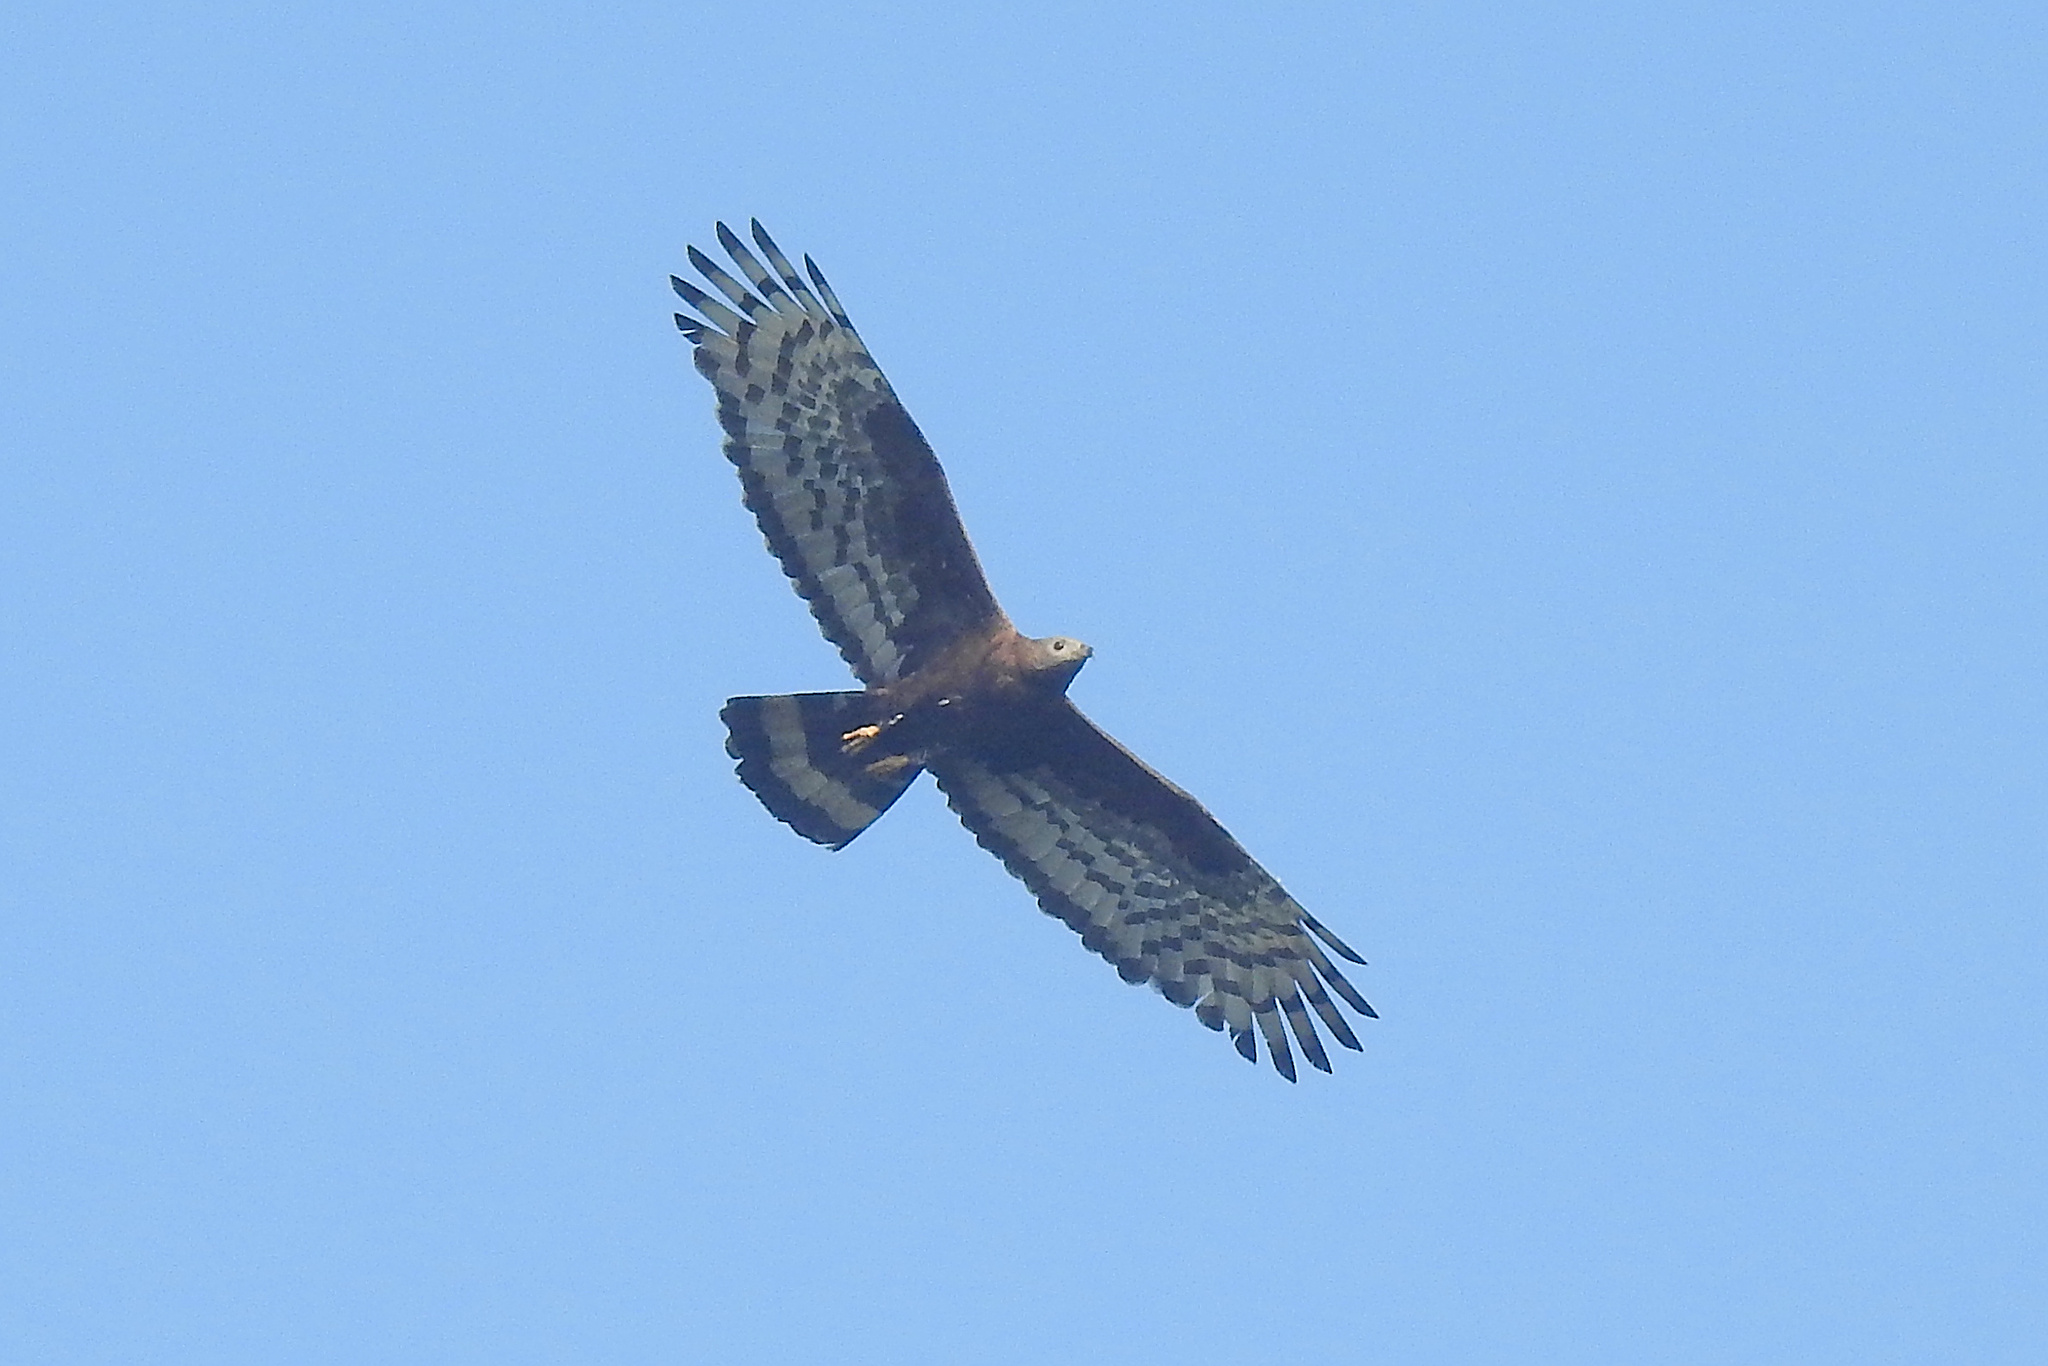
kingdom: Animalia
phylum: Chordata
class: Aves
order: Accipitriformes
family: Accipitridae
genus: Pernis
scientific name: Pernis ptilorhynchus
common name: Crested honey buzzard
